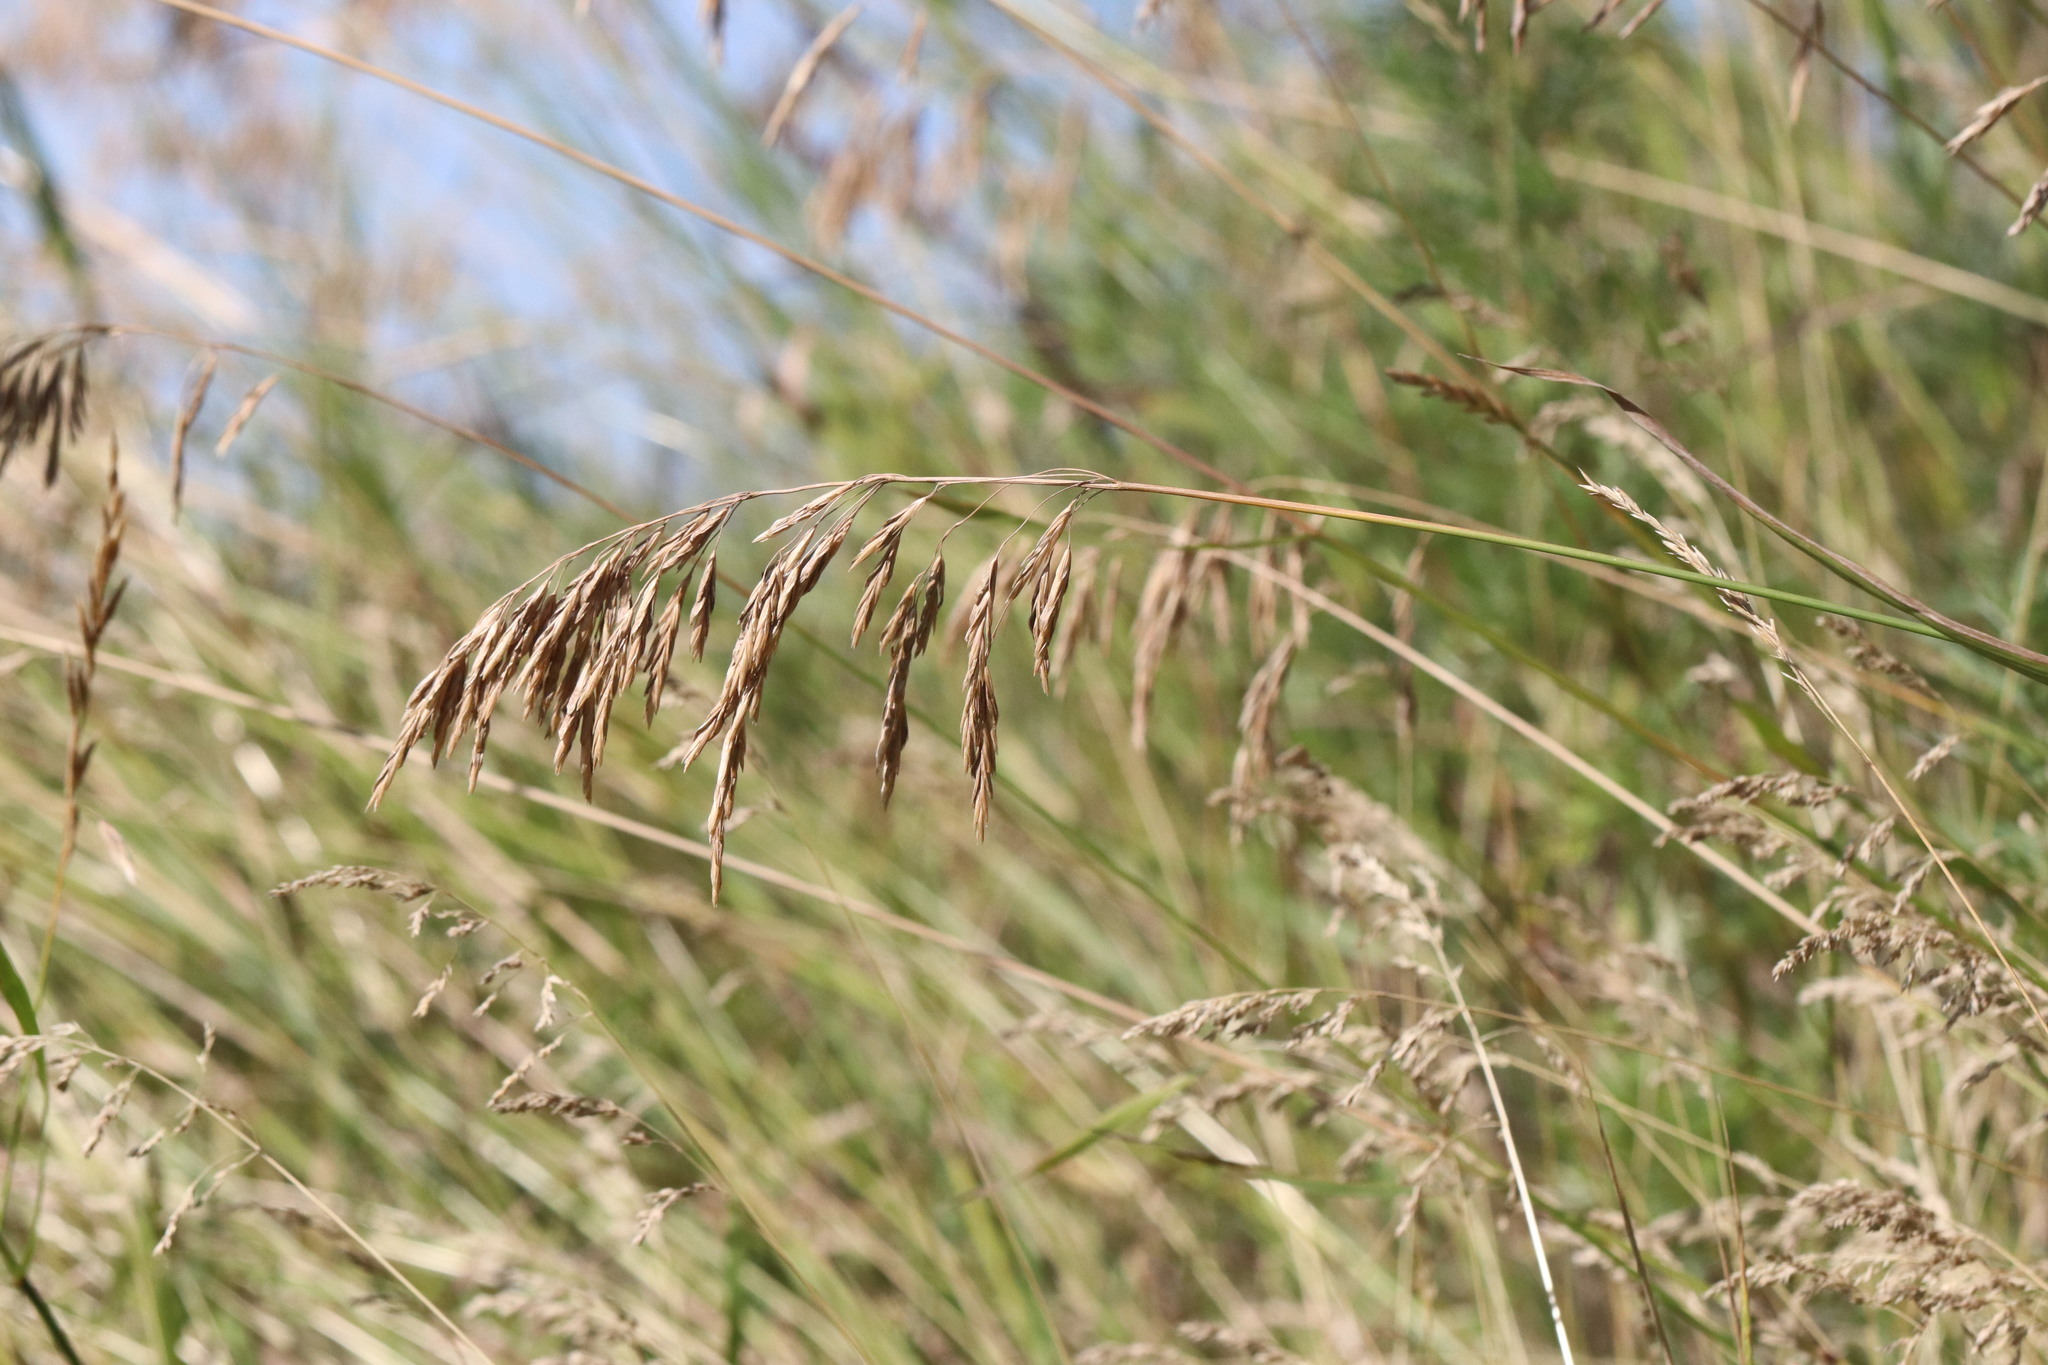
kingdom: Plantae
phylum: Tracheophyta
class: Liliopsida
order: Poales
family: Poaceae
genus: Bromus
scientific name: Bromus inermis
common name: Smooth brome
